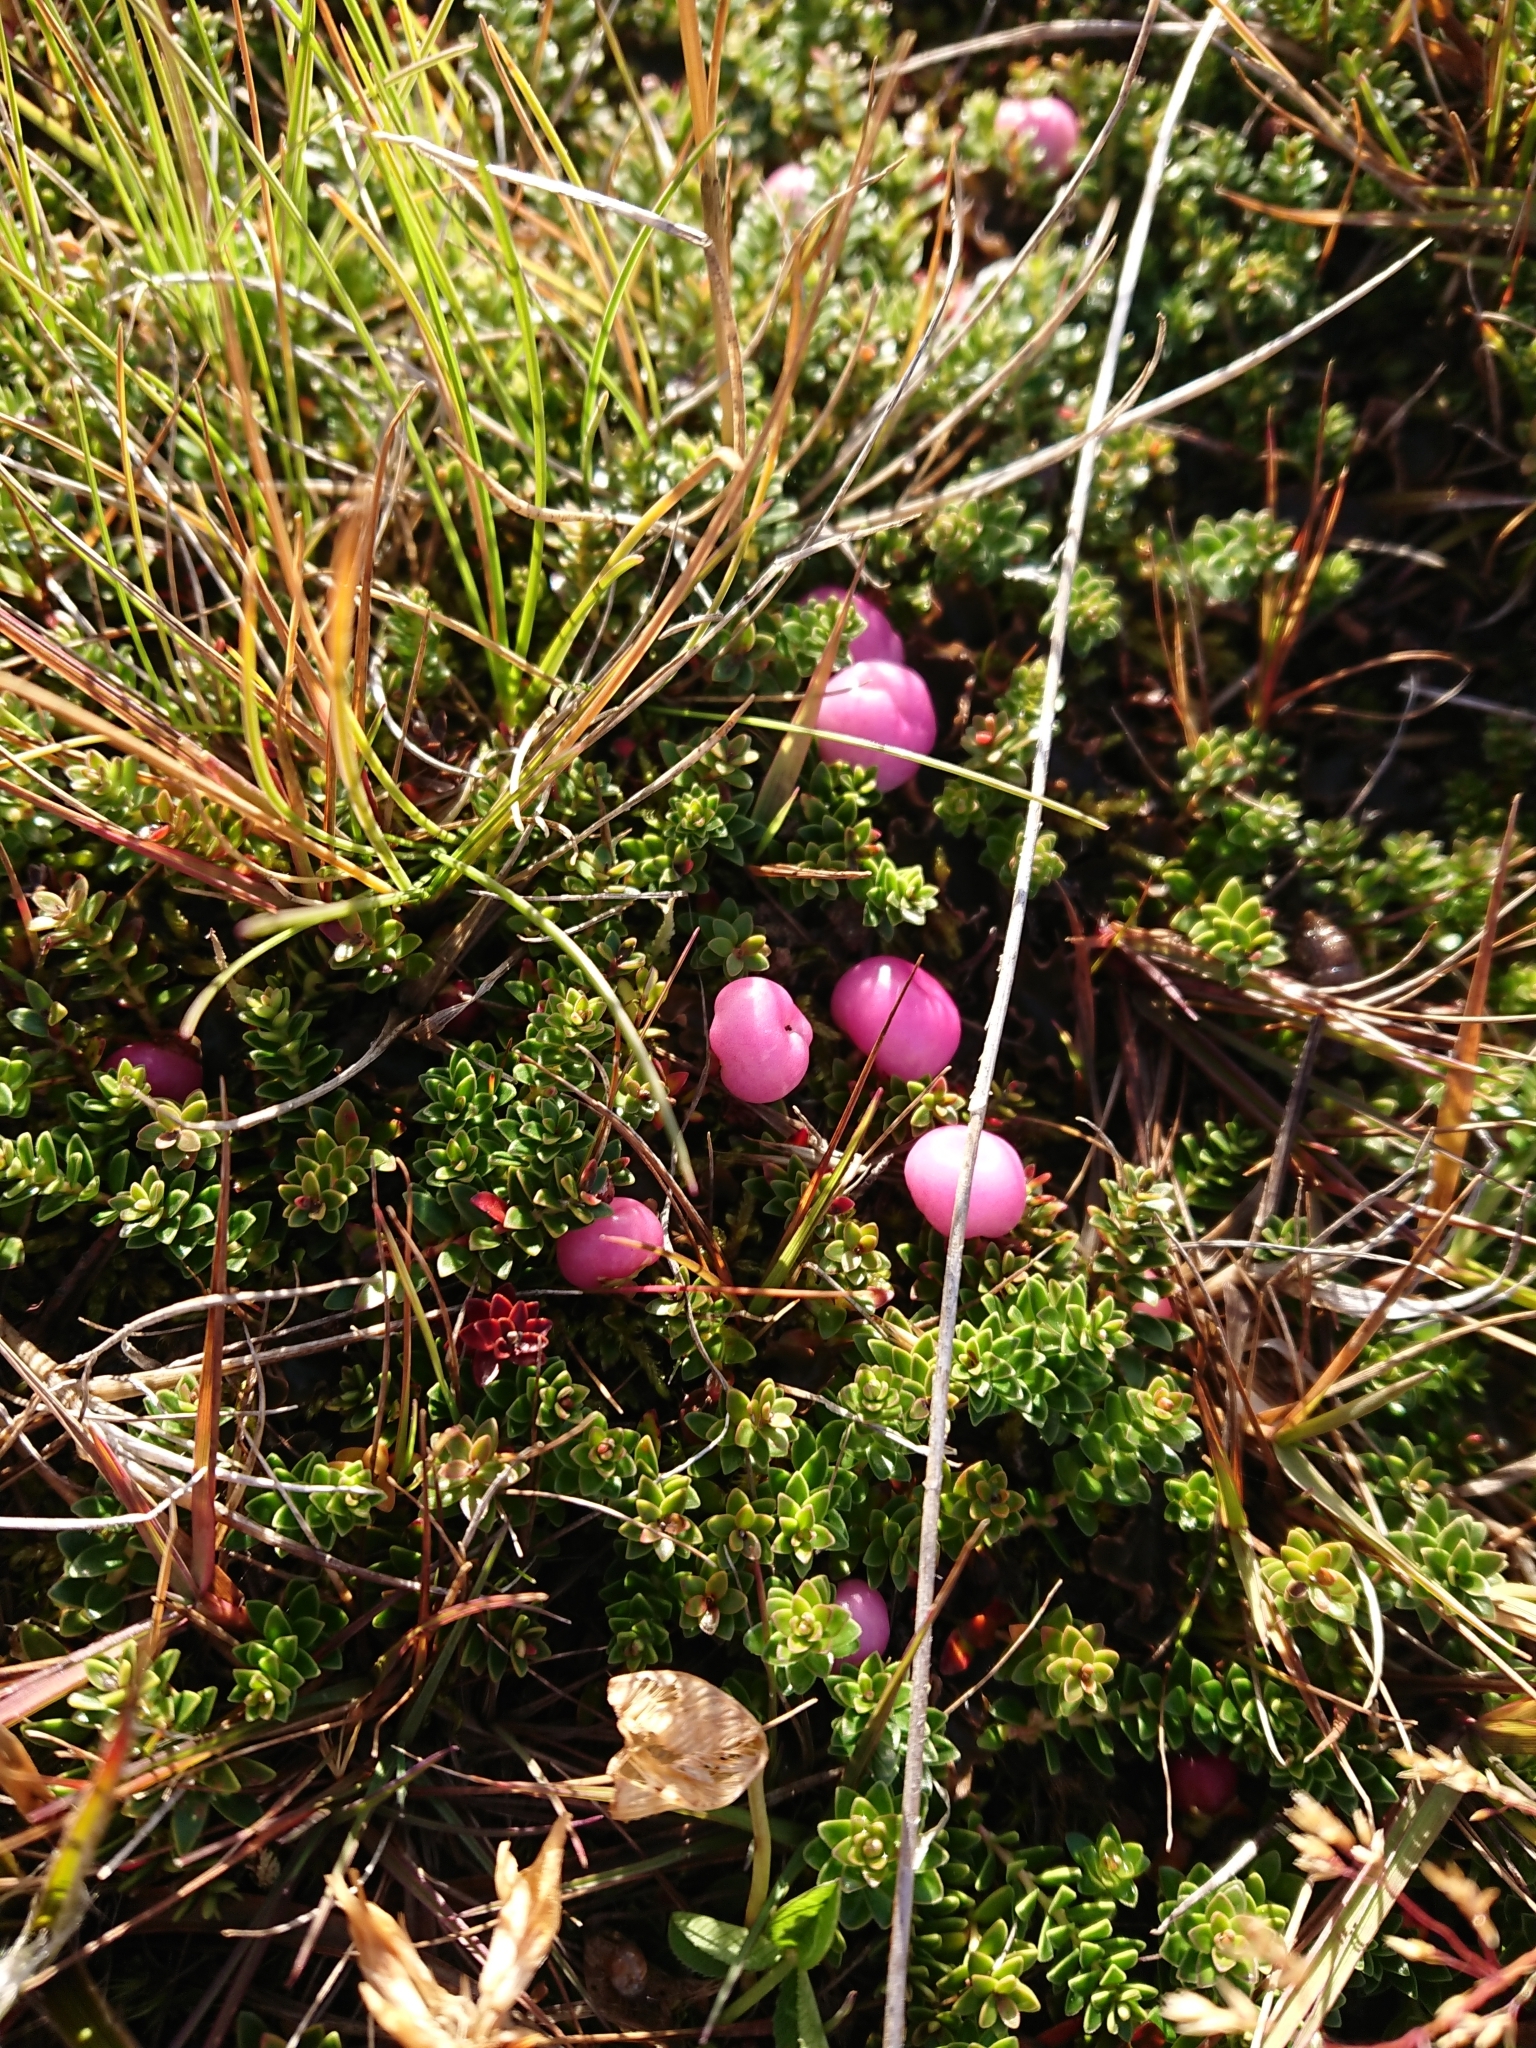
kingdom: Plantae
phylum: Tracheophyta
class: Magnoliopsida
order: Ericales
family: Ericaceae
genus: Empetrum
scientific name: Empetrum rubrum
